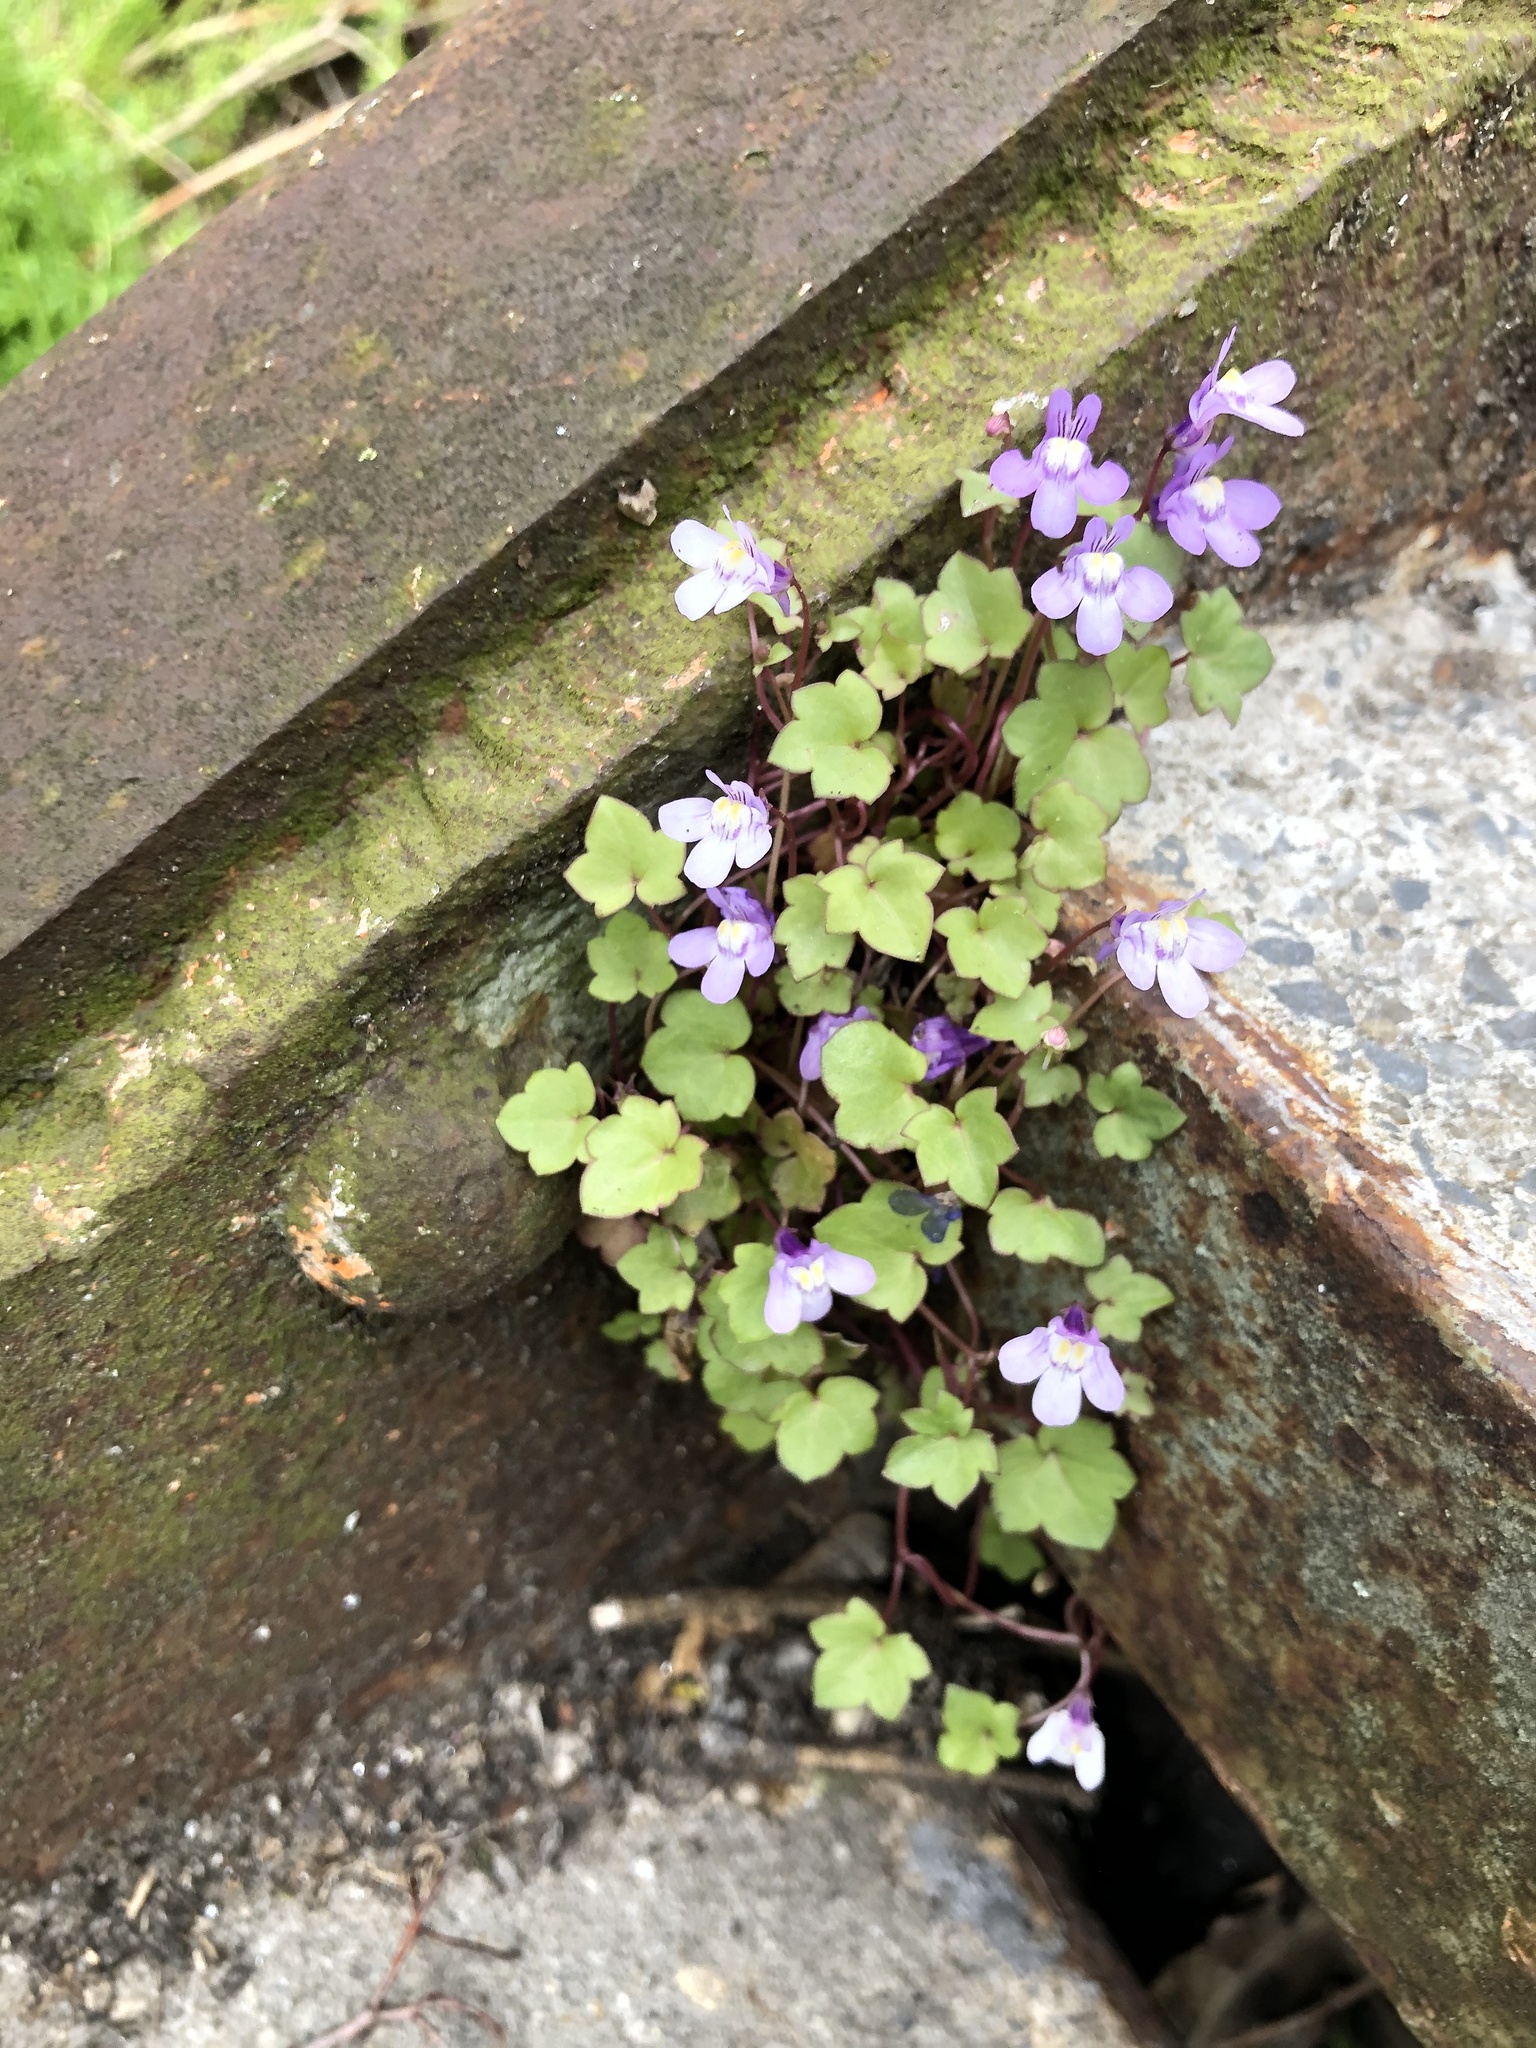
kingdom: Plantae
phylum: Tracheophyta
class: Magnoliopsida
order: Lamiales
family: Plantaginaceae
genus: Cymbalaria
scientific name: Cymbalaria muralis
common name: Ivy-leaved toadflax
